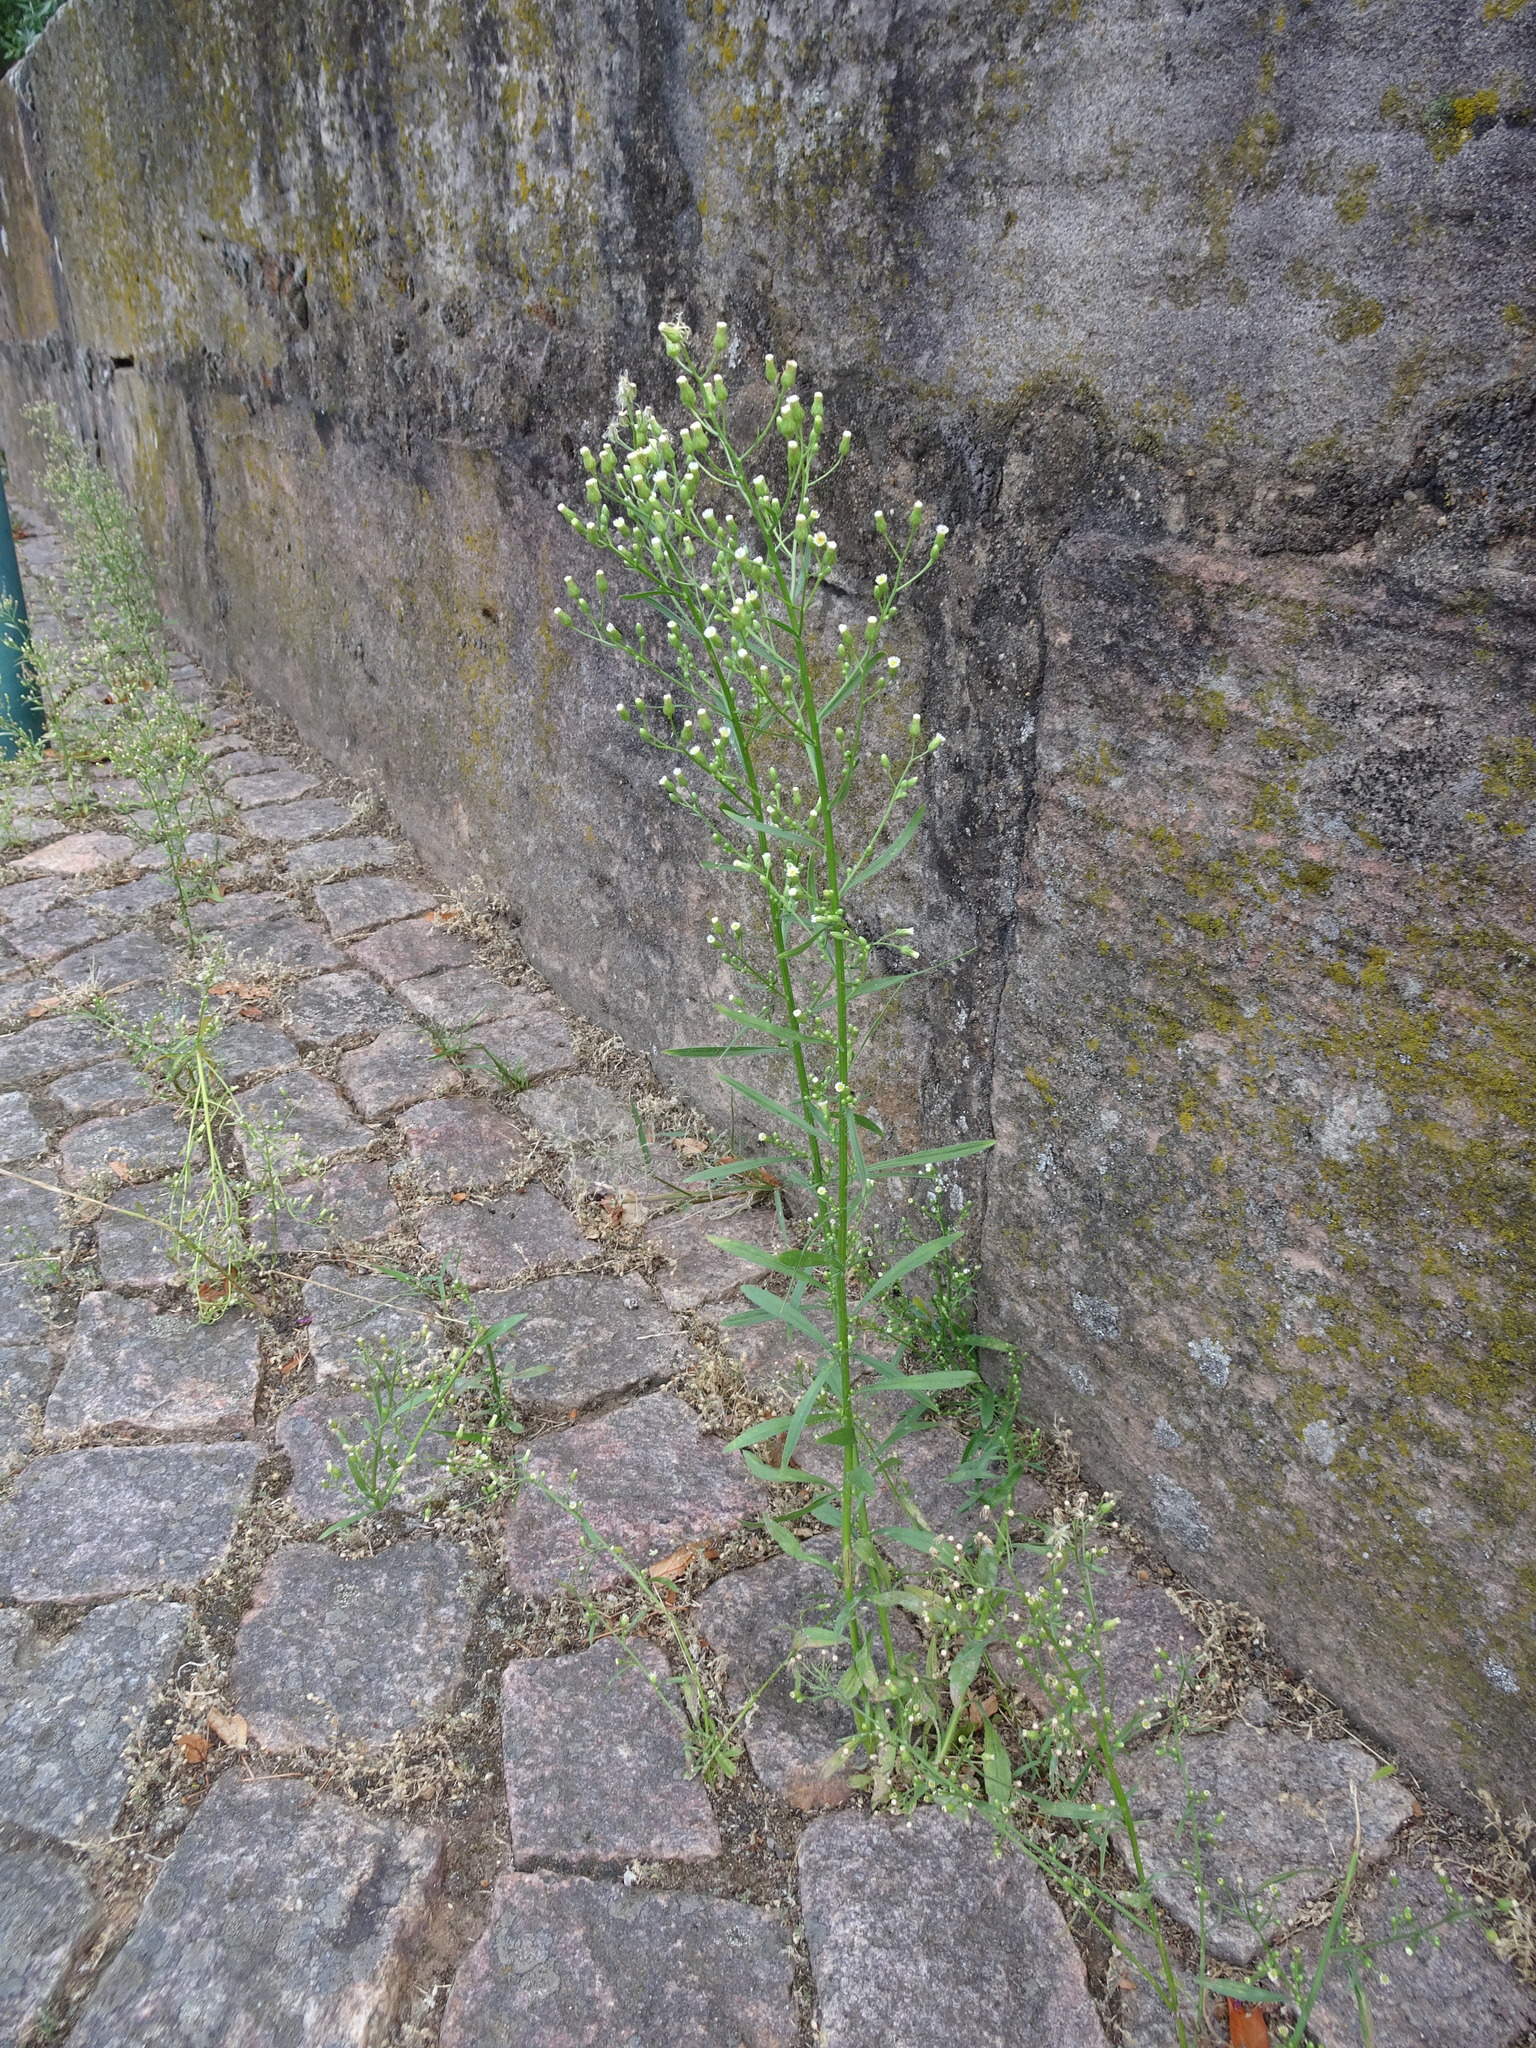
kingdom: Plantae
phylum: Tracheophyta
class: Magnoliopsida
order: Asterales
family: Asteraceae
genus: Erigeron
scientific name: Erigeron canadensis
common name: Canadian fleabane
